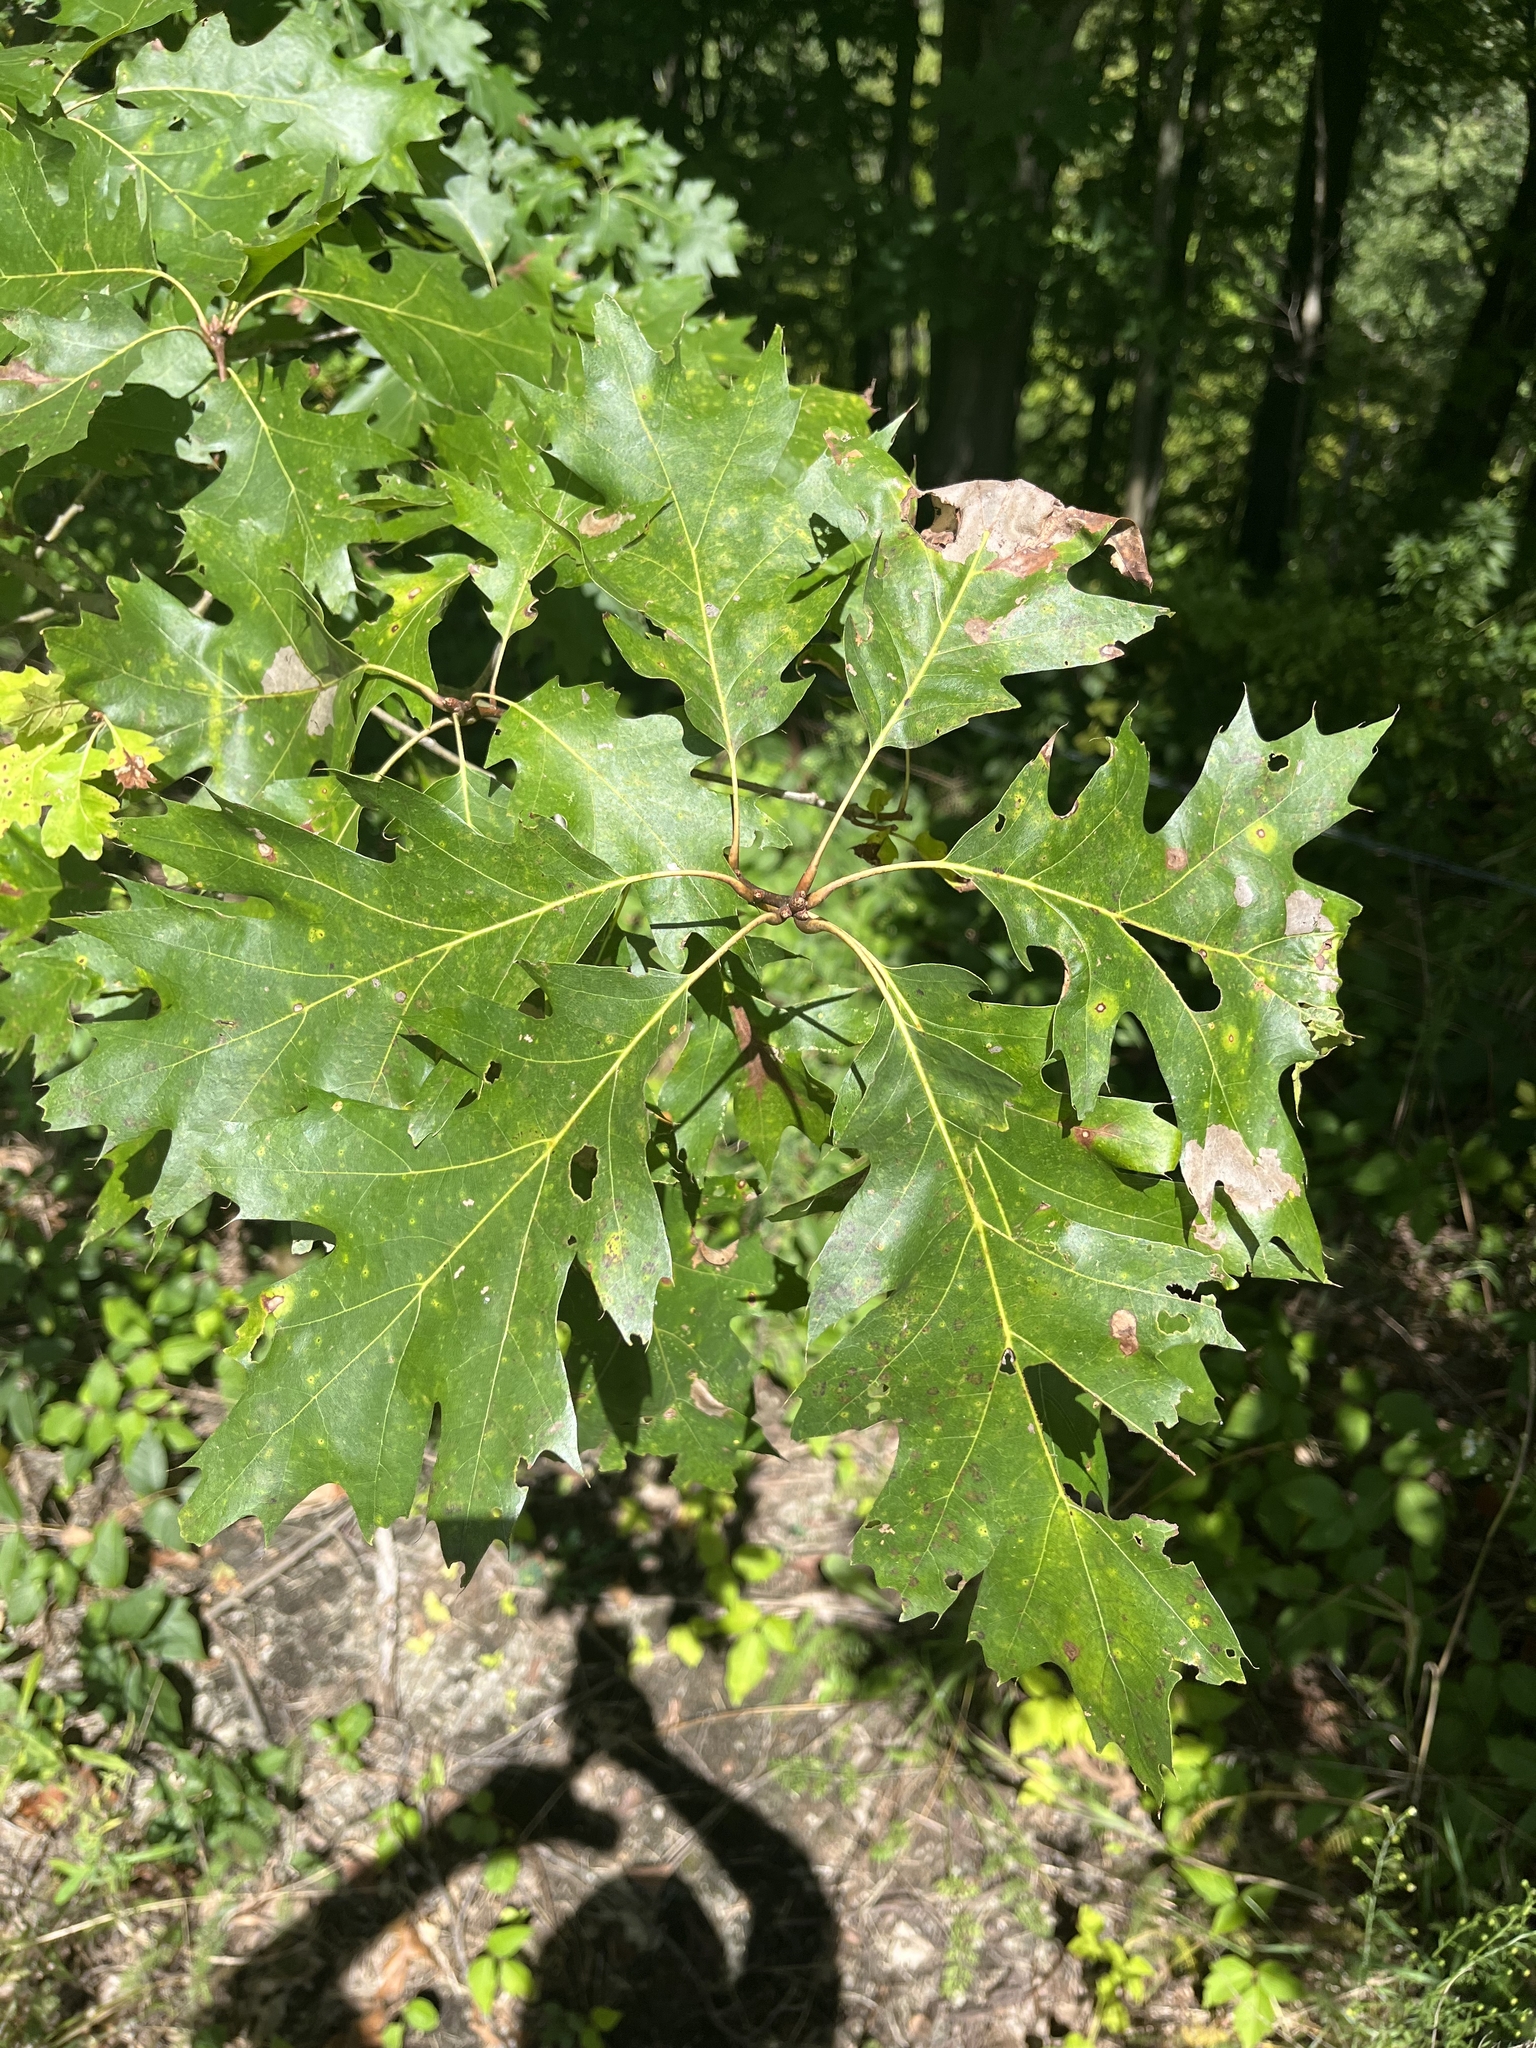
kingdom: Plantae
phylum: Tracheophyta
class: Magnoliopsida
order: Fagales
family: Fagaceae
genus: Quercus
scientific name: Quercus rubra
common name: Red oak
